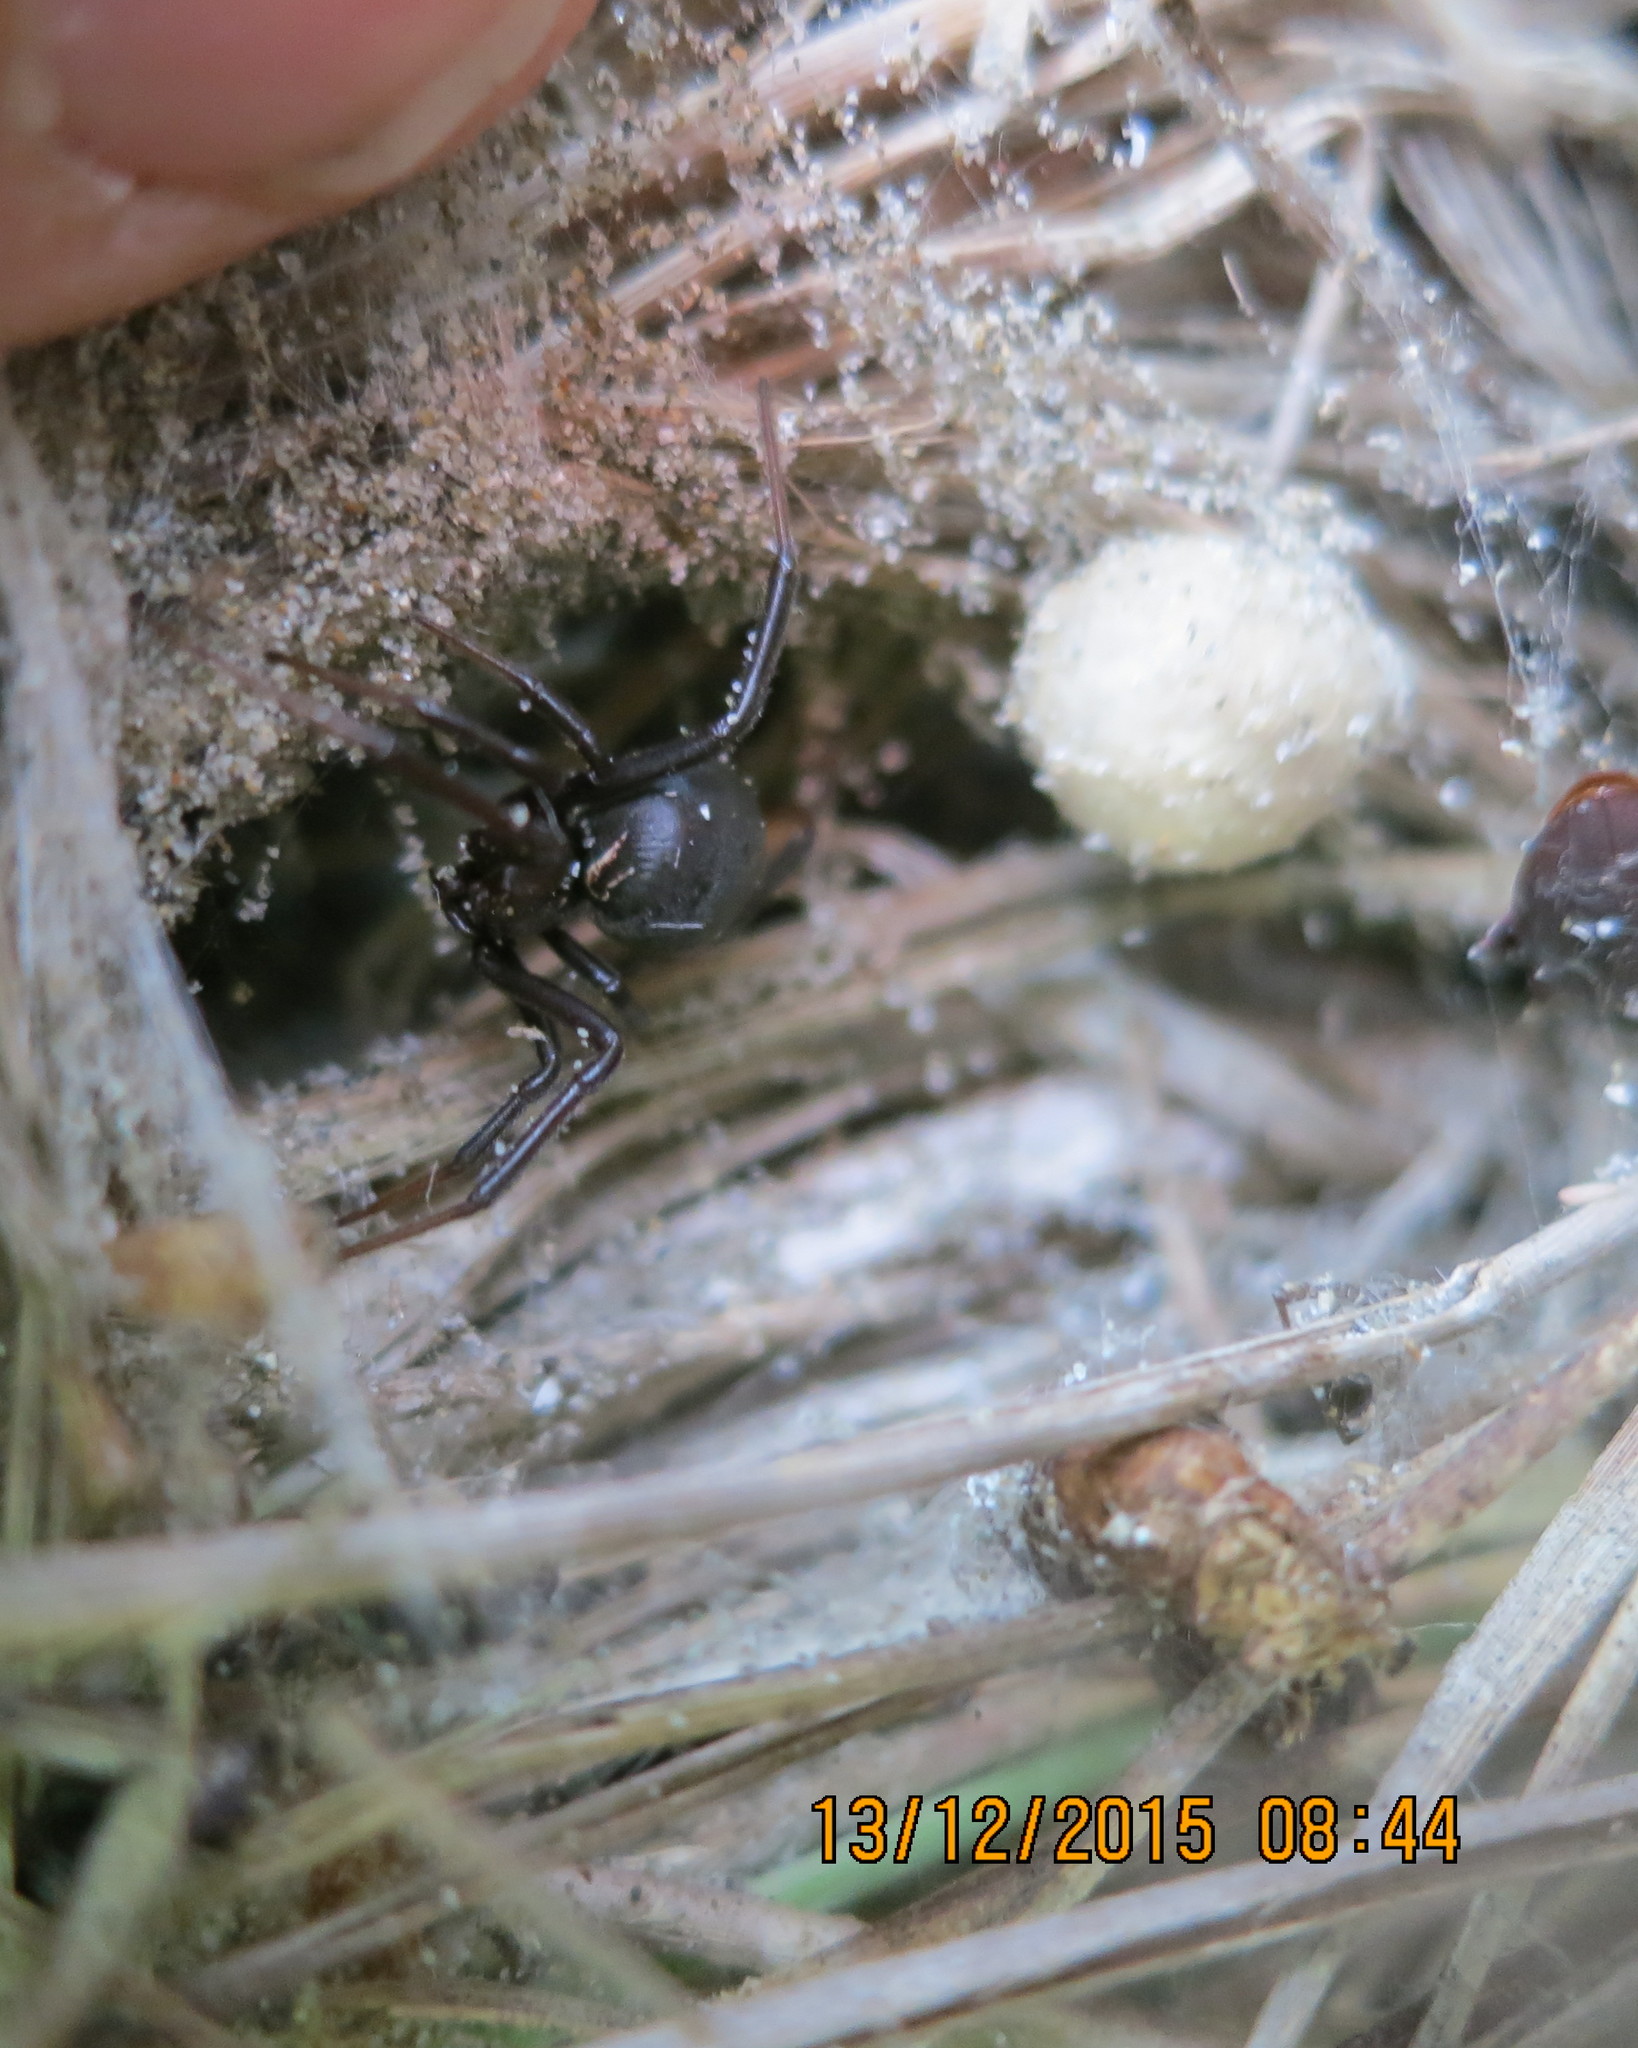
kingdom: Animalia
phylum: Arthropoda
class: Arachnida
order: Araneae
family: Theridiidae
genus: Latrodectus
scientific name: Latrodectus katipo
